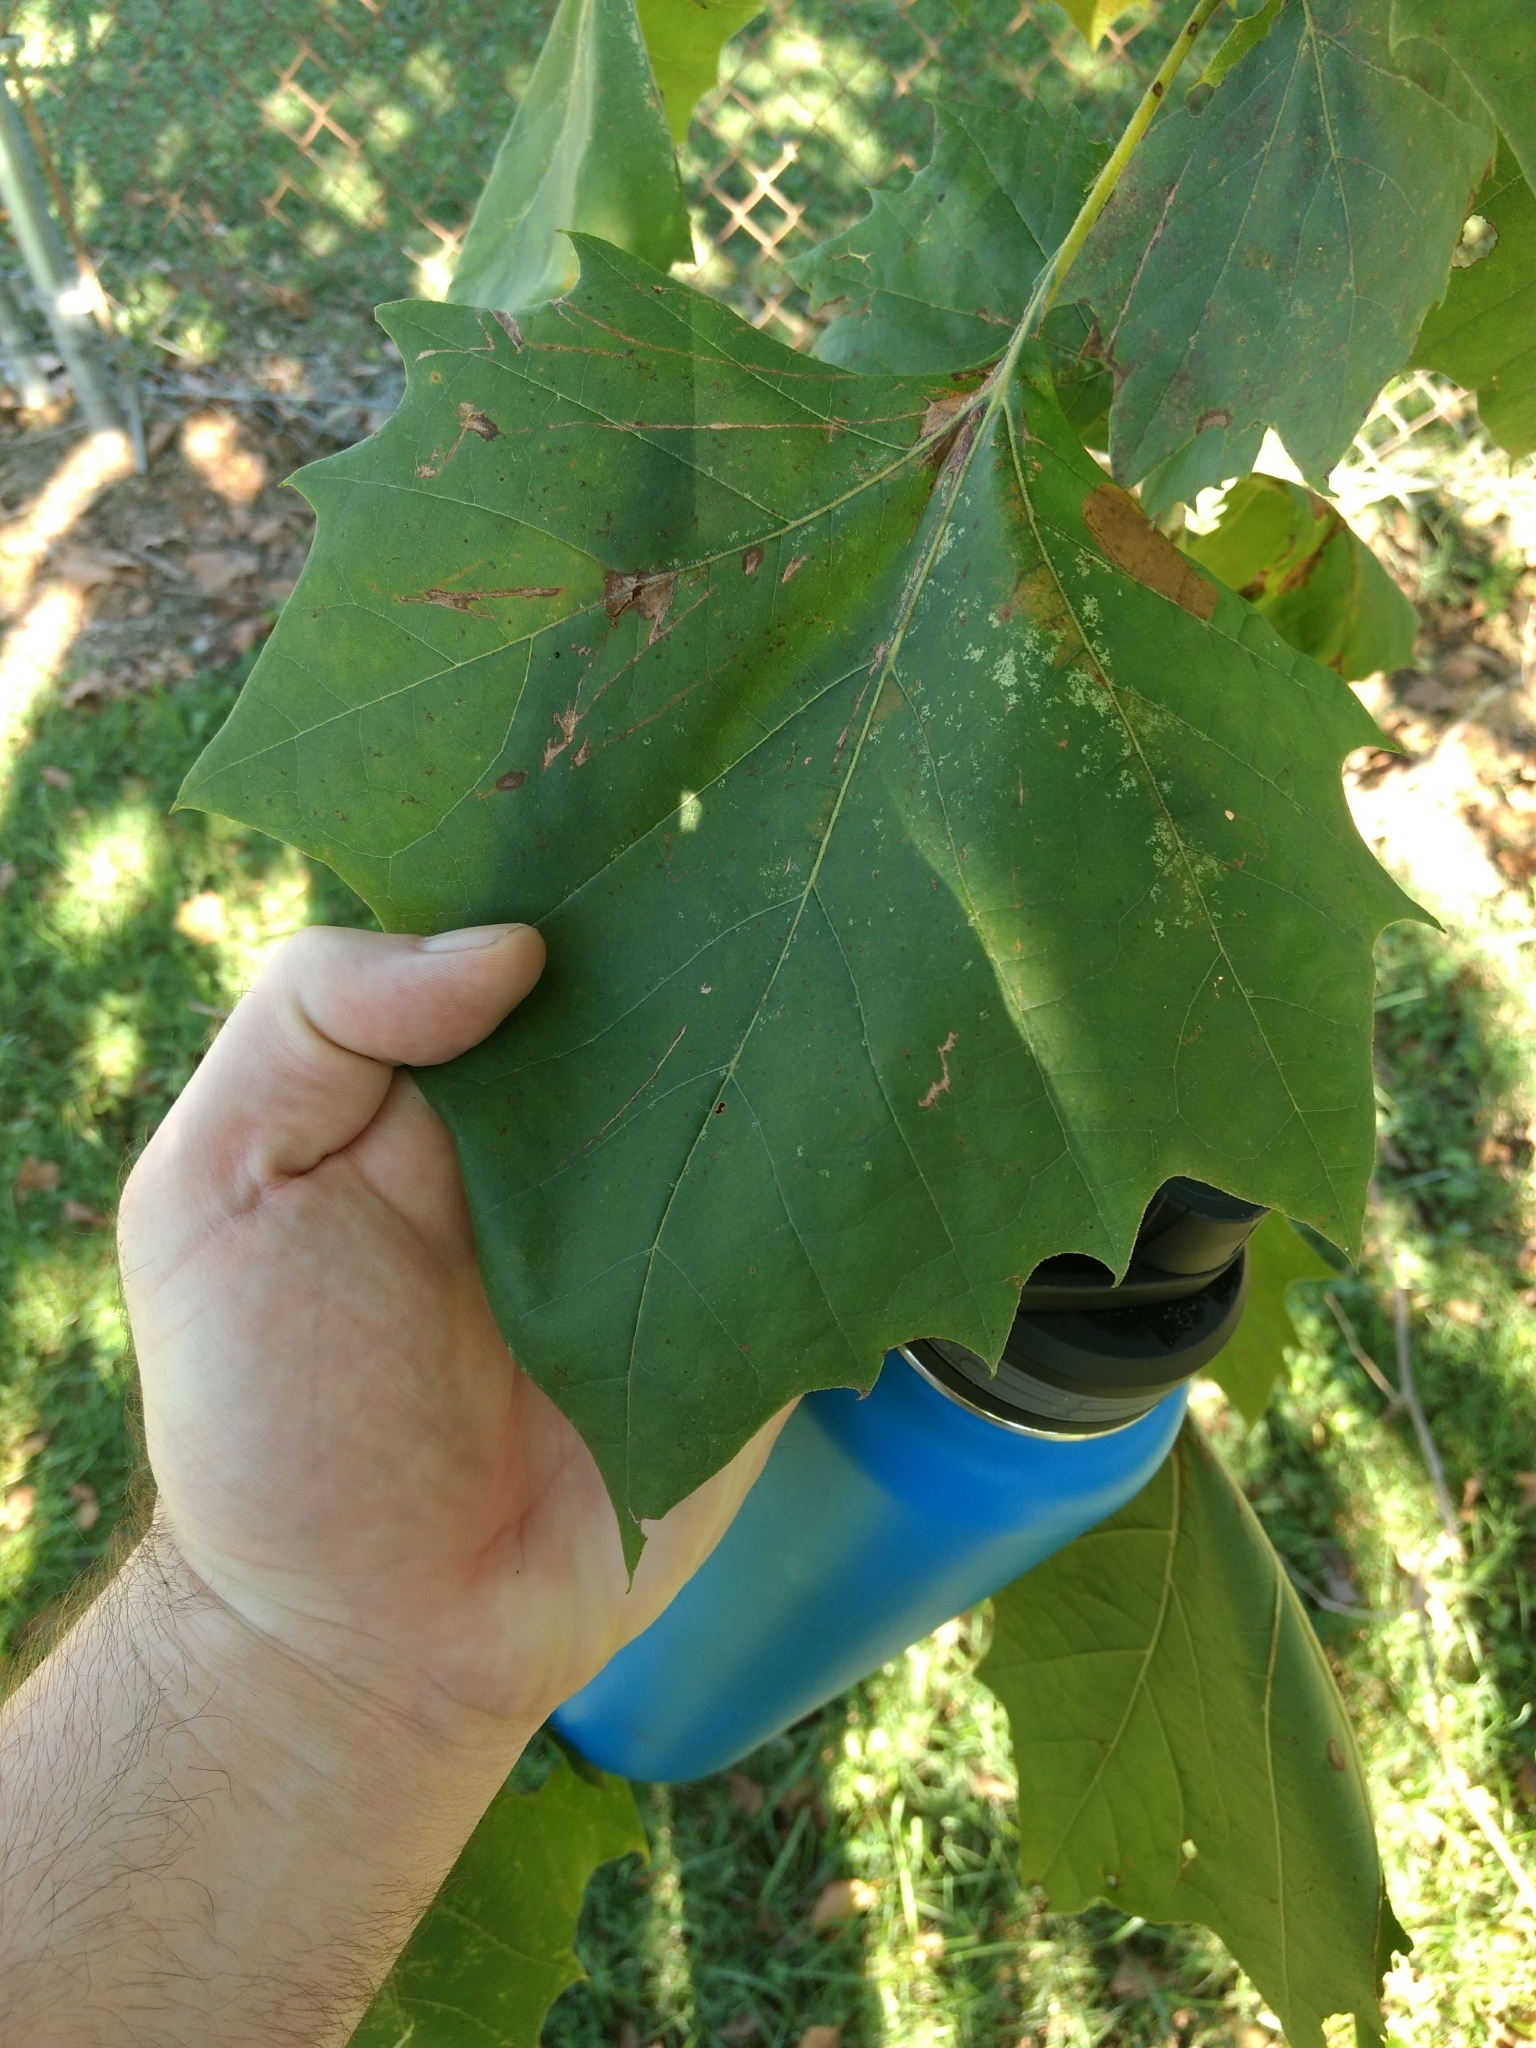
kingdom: Plantae
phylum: Tracheophyta
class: Magnoliopsida
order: Proteales
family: Platanaceae
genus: Platanus
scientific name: Platanus occidentalis
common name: American sycamore
